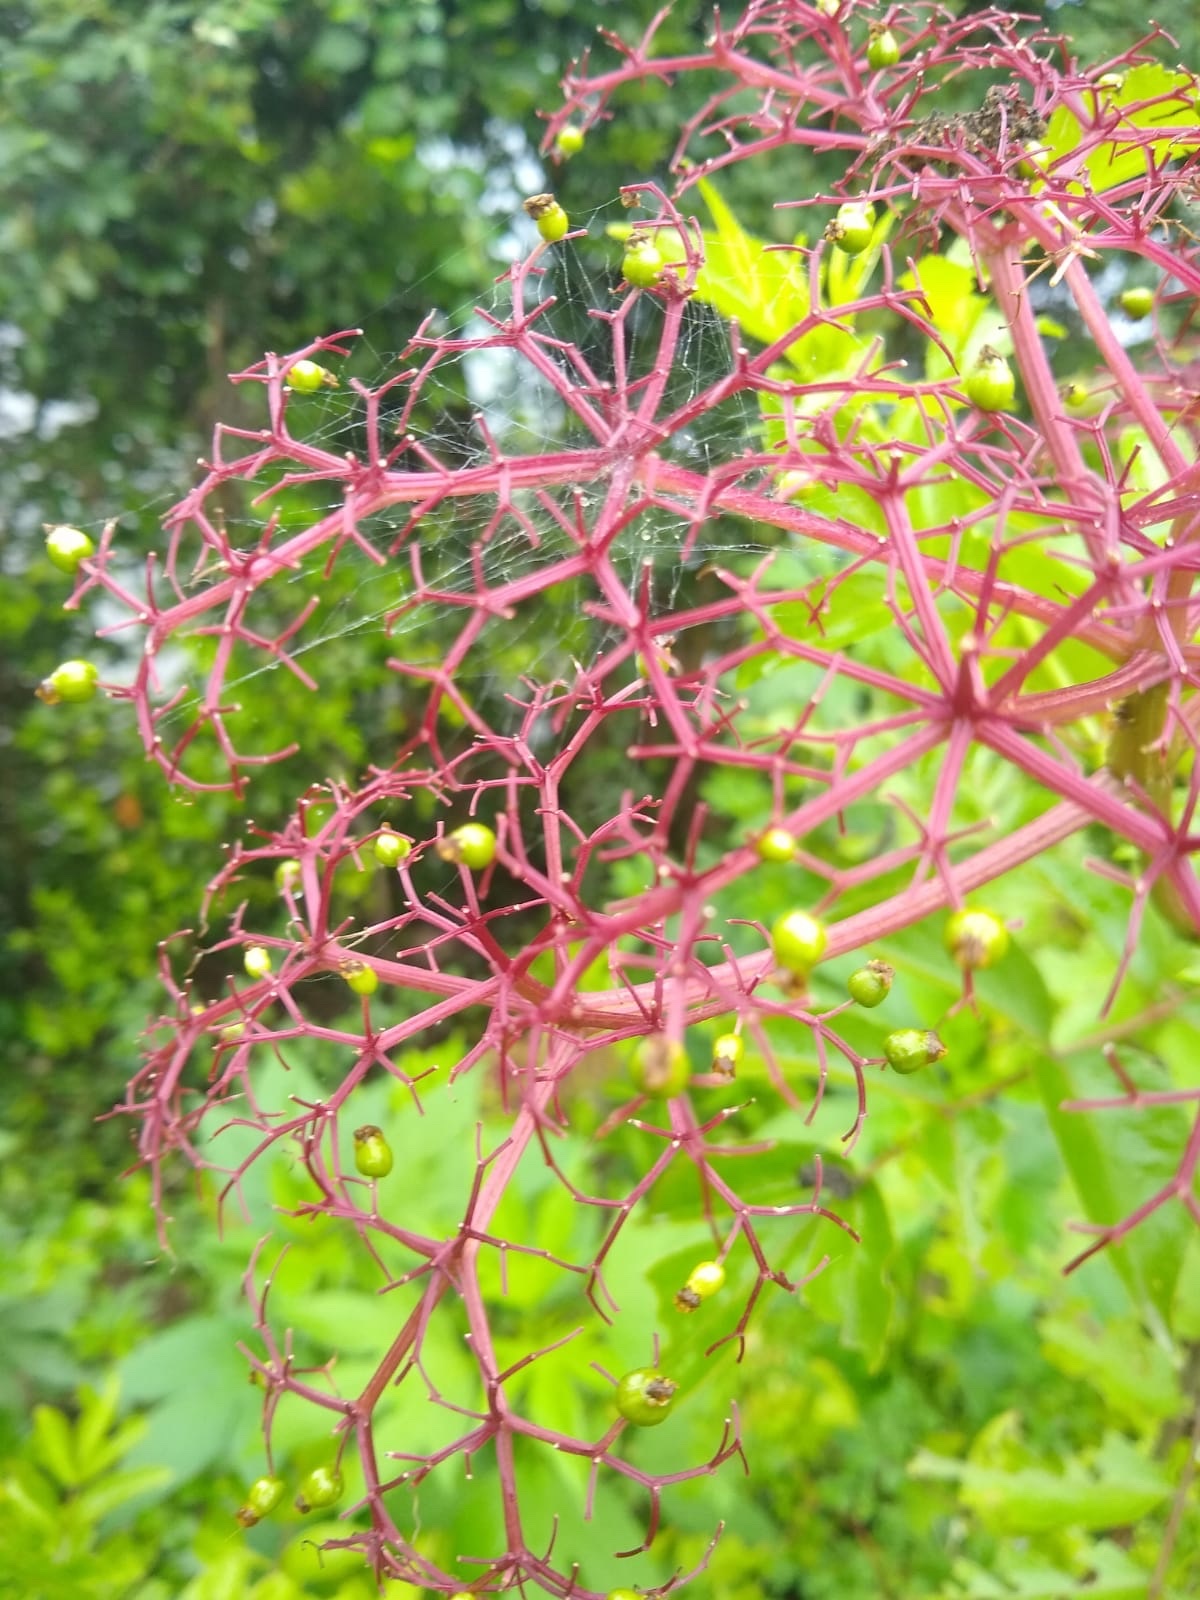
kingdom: Plantae
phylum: Tracheophyta
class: Magnoliopsida
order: Dipsacales
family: Viburnaceae
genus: Sambucus
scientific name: Sambucus canadensis
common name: American elder
